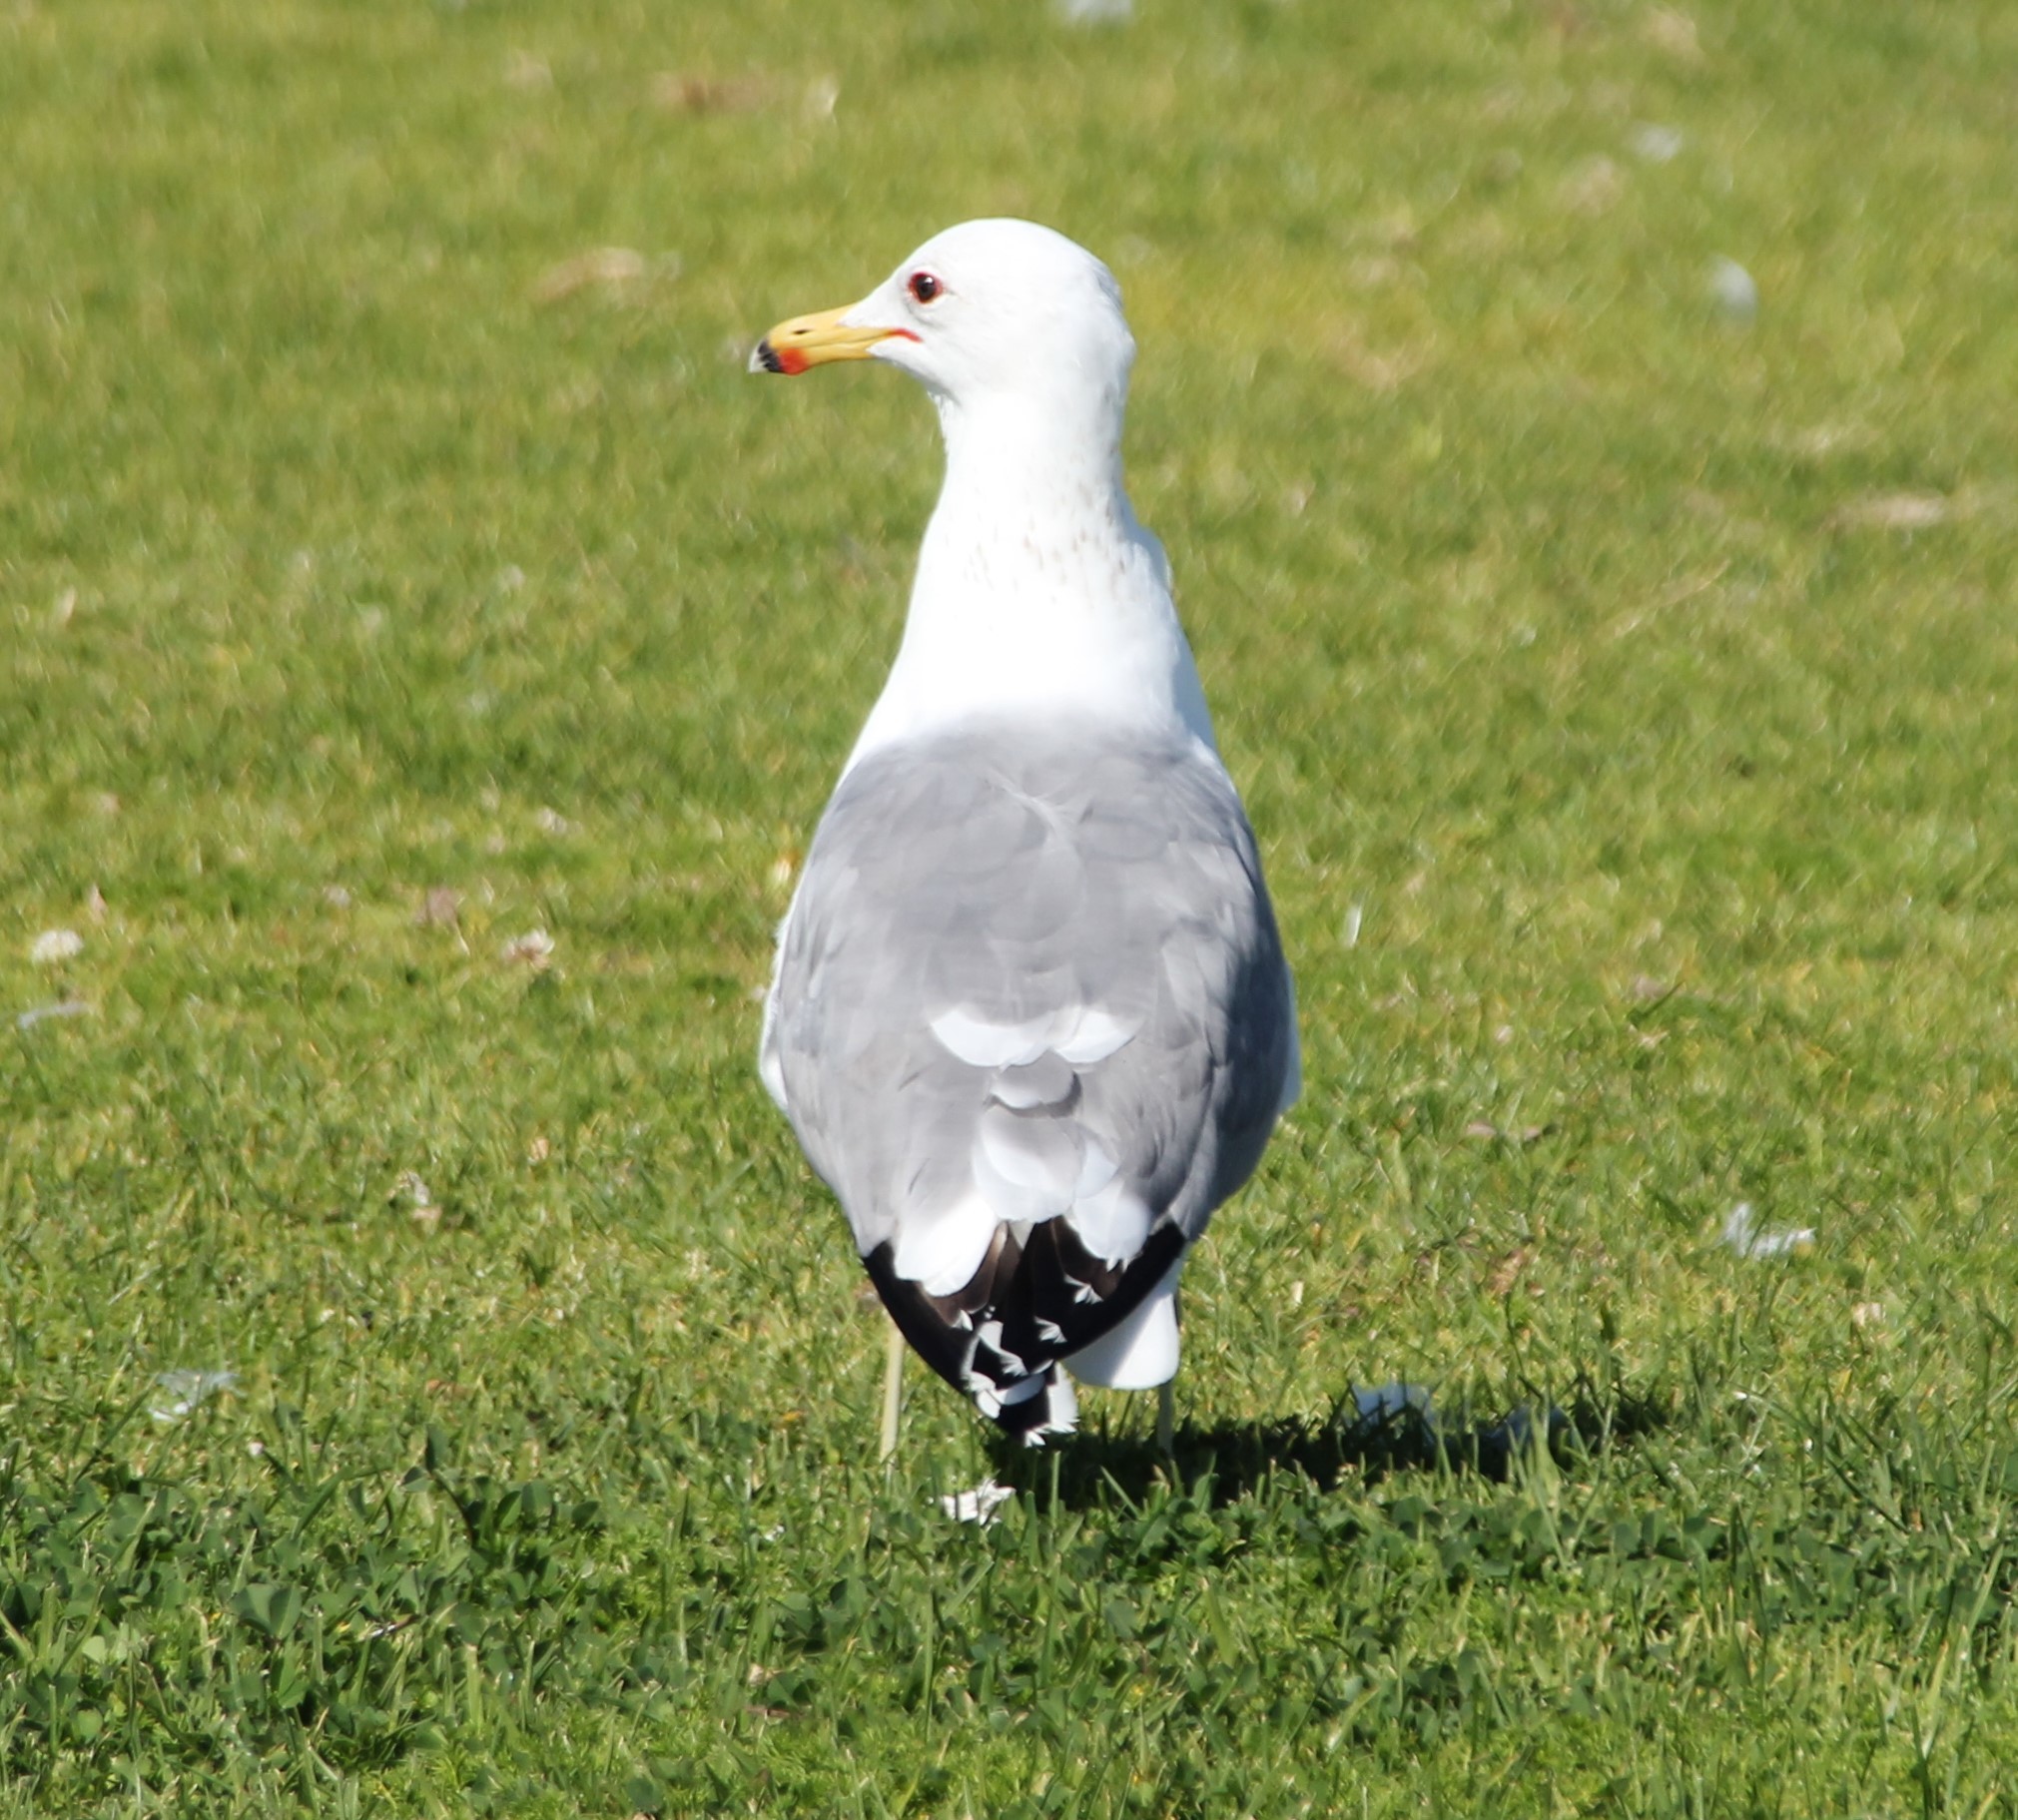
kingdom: Animalia
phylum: Chordata
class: Aves
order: Charadriiformes
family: Laridae
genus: Larus
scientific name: Larus californicus
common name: California gull
